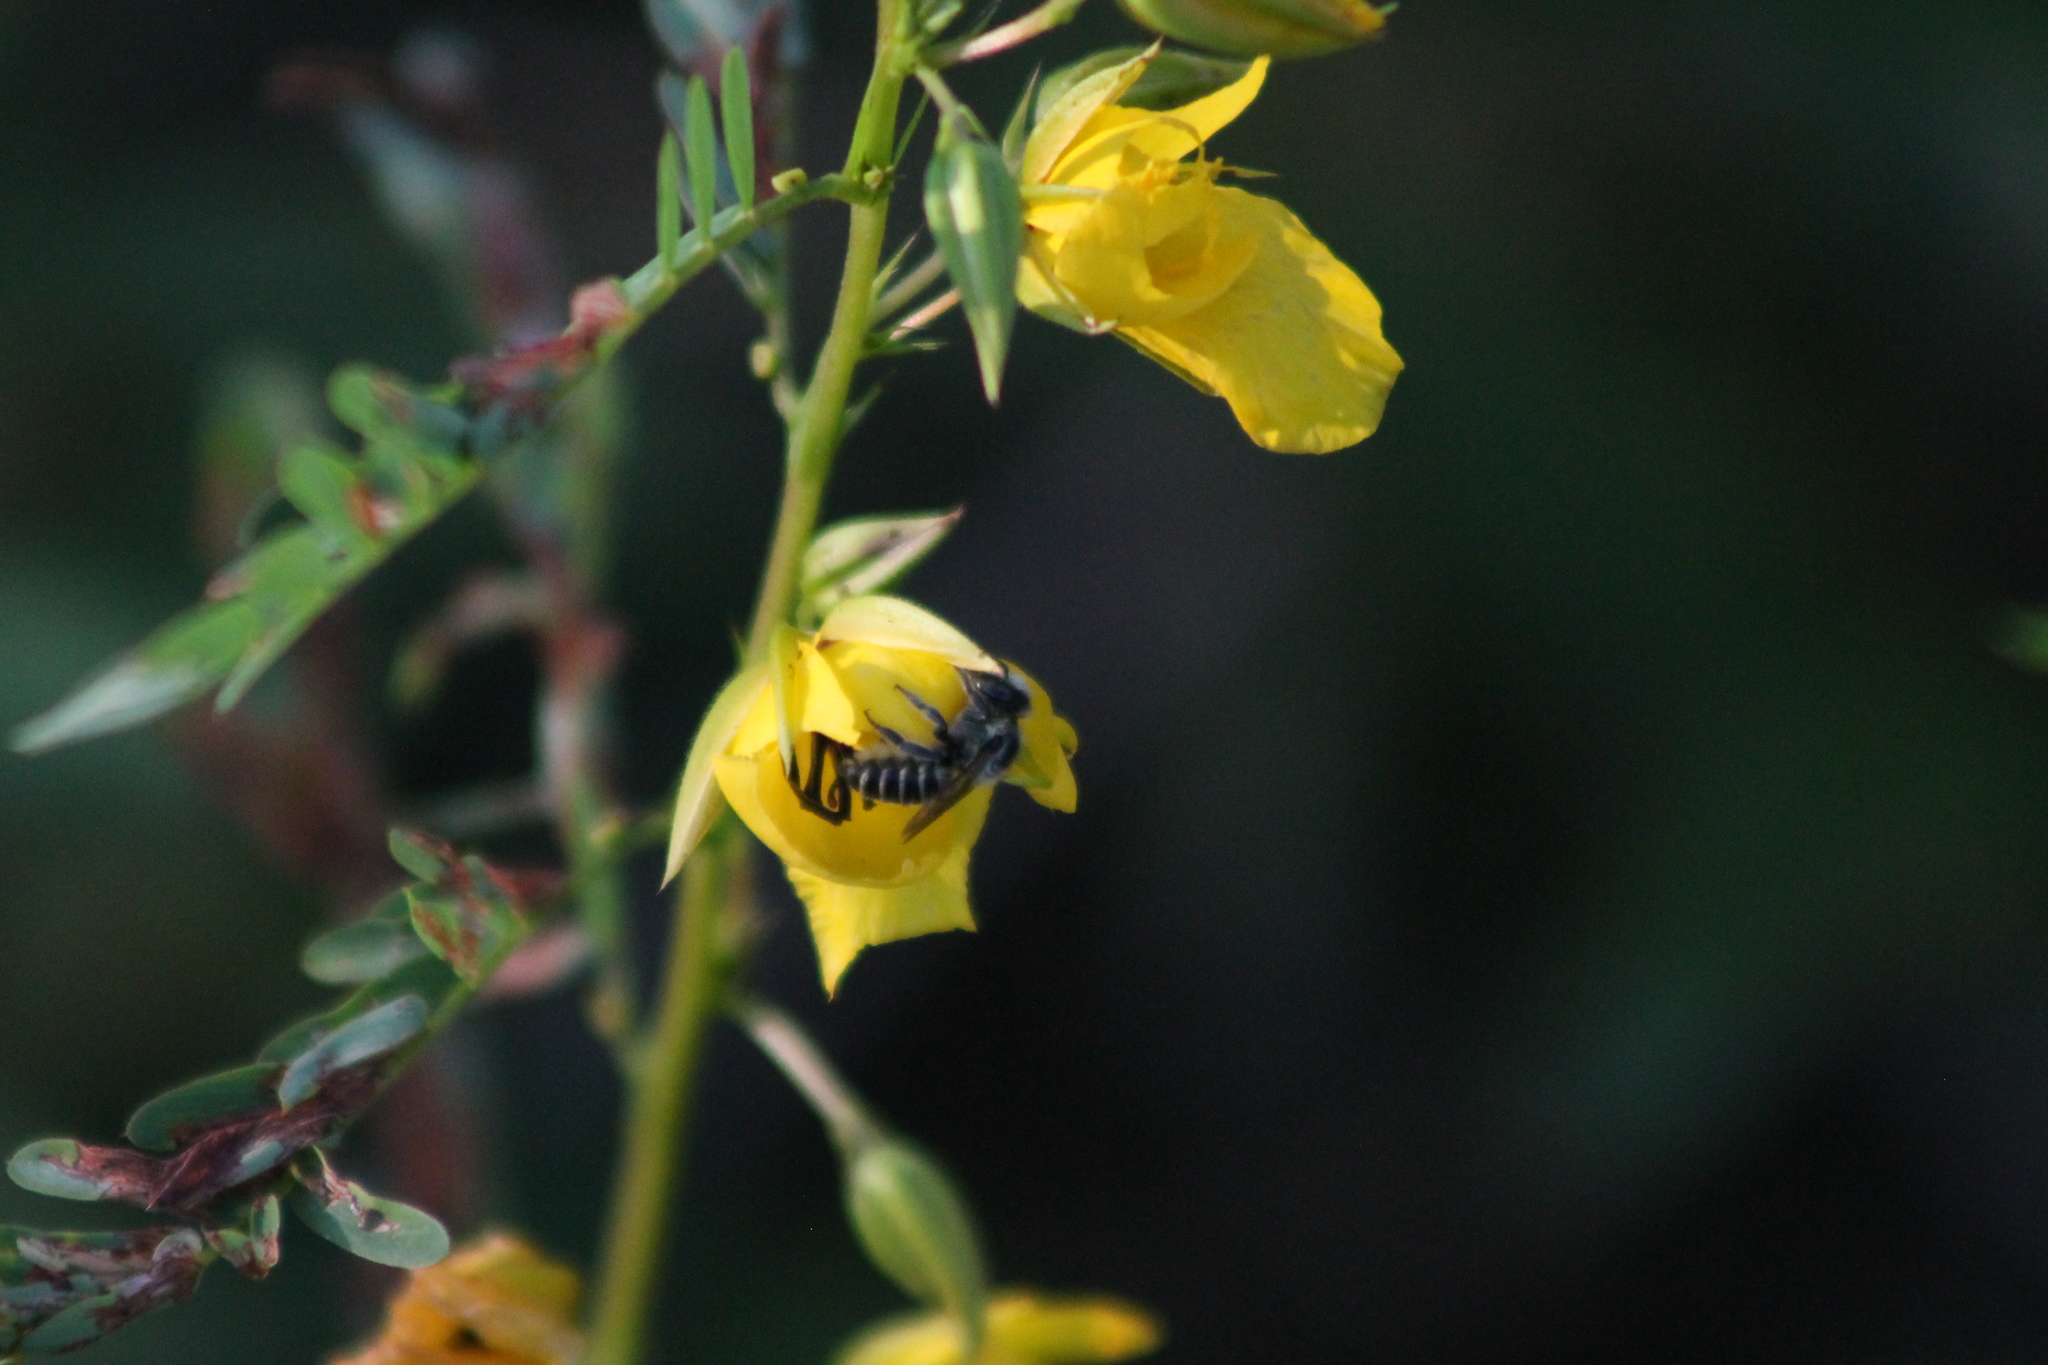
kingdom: Animalia
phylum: Arthropoda
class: Insecta
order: Hymenoptera
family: Megachilidae
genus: Megachile
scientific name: Megachile
